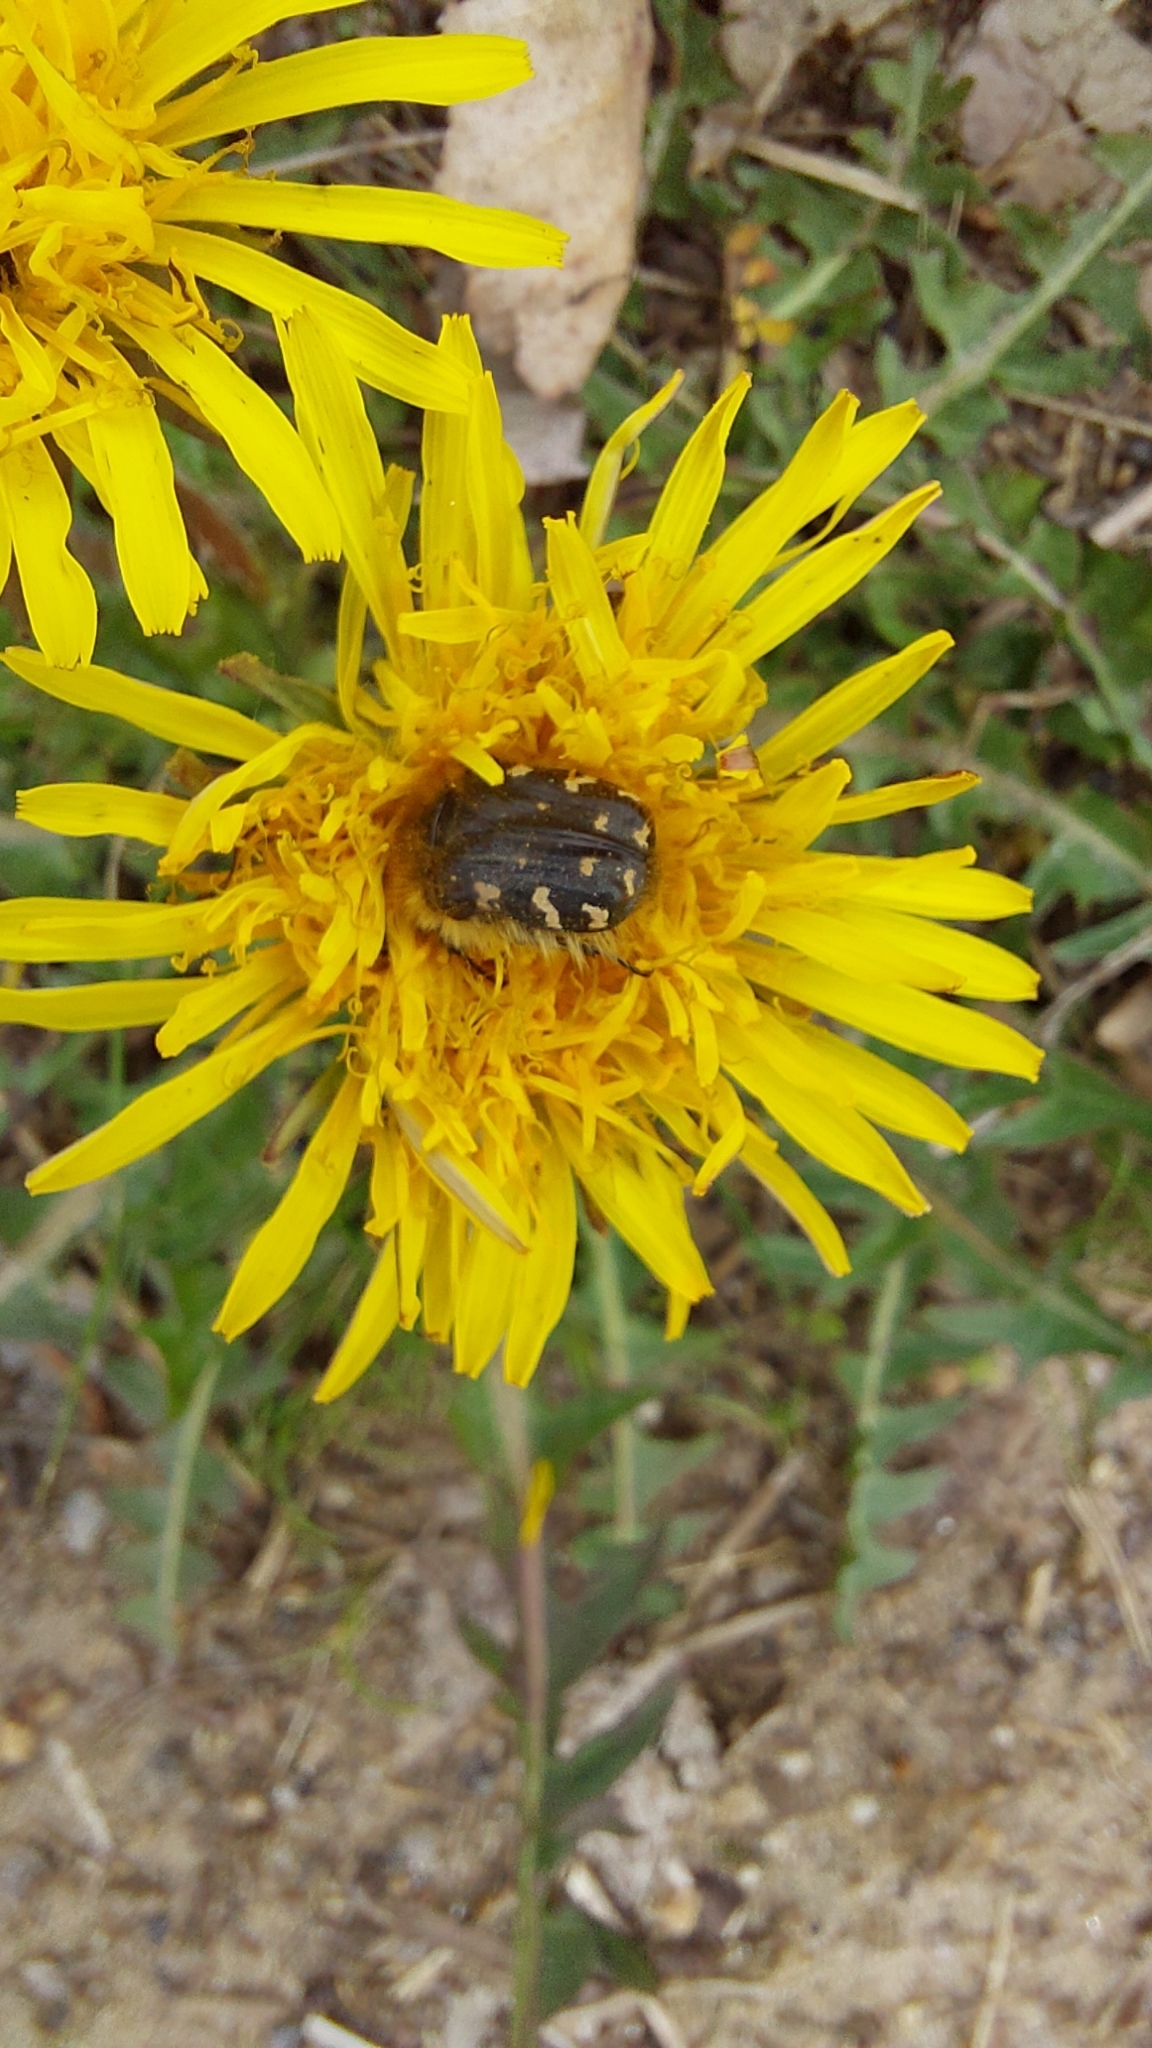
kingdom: Animalia
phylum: Arthropoda
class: Insecta
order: Coleoptera
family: Scarabaeidae
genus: Tropinota
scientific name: Tropinota hirta
